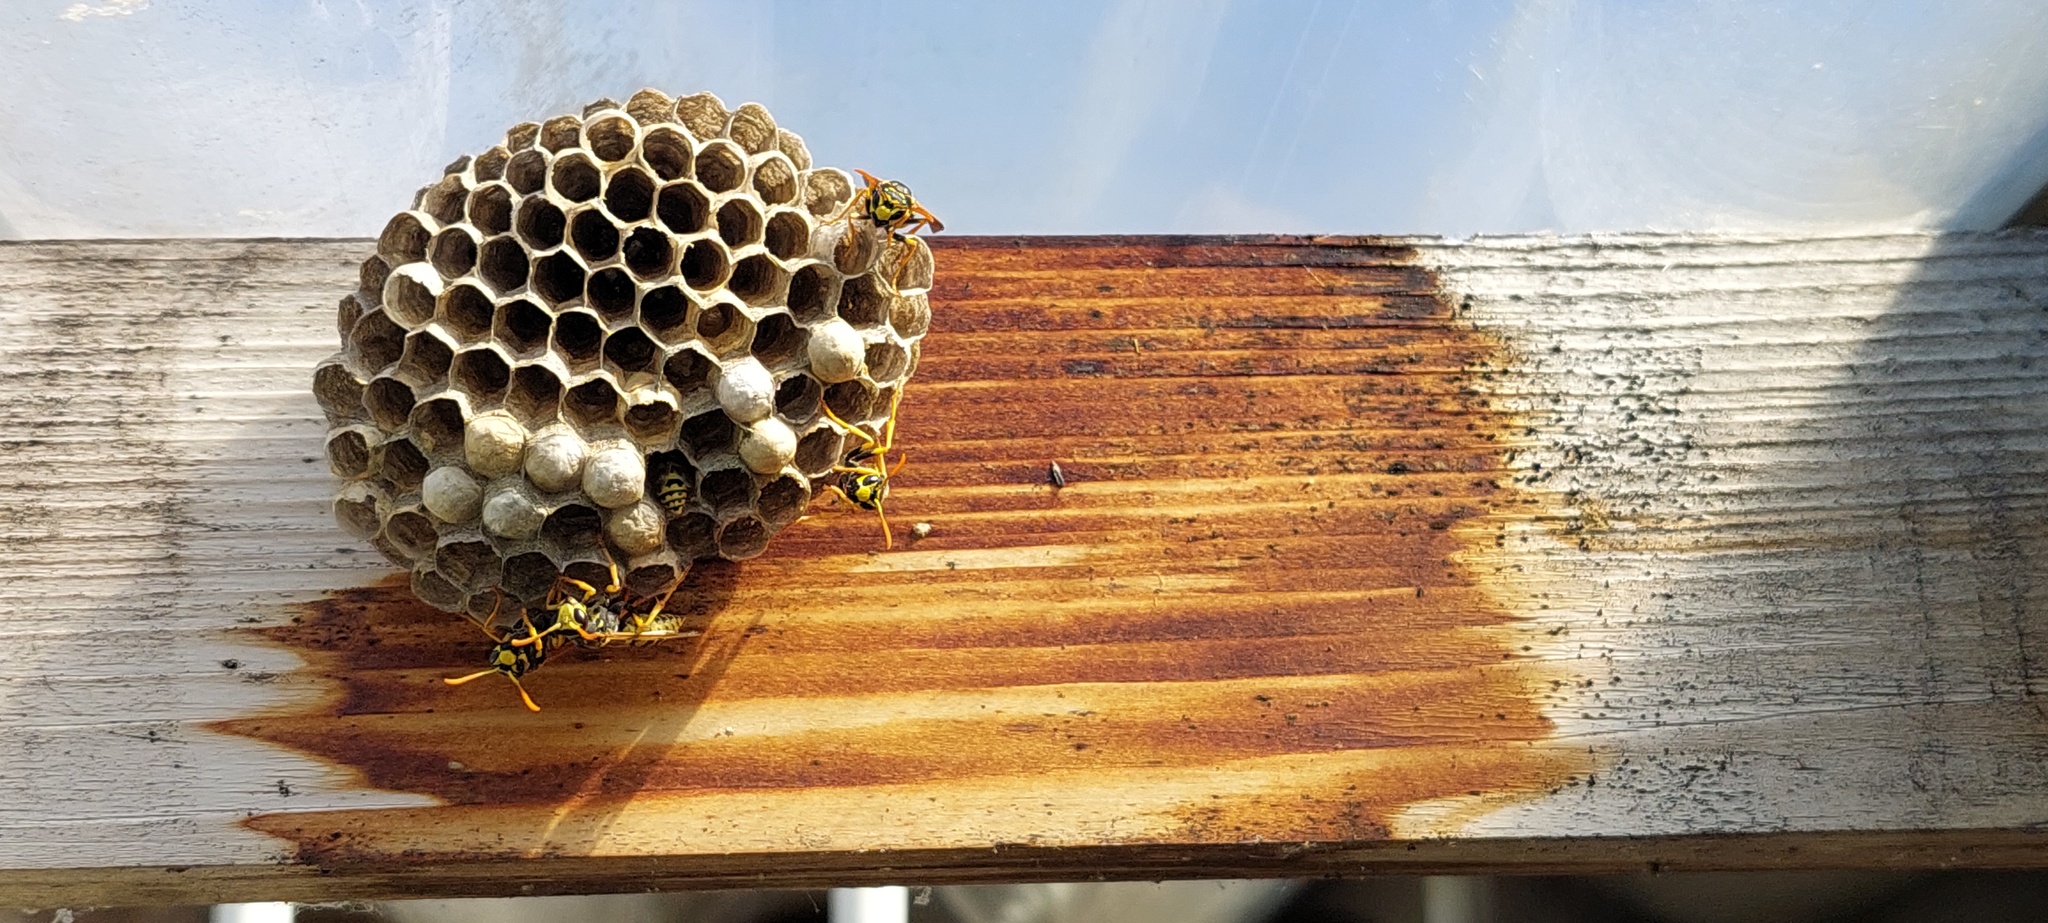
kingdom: Animalia
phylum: Arthropoda
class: Insecta
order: Hymenoptera
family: Eumenidae
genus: Polistes
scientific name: Polistes dominula
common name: Paper wasp
